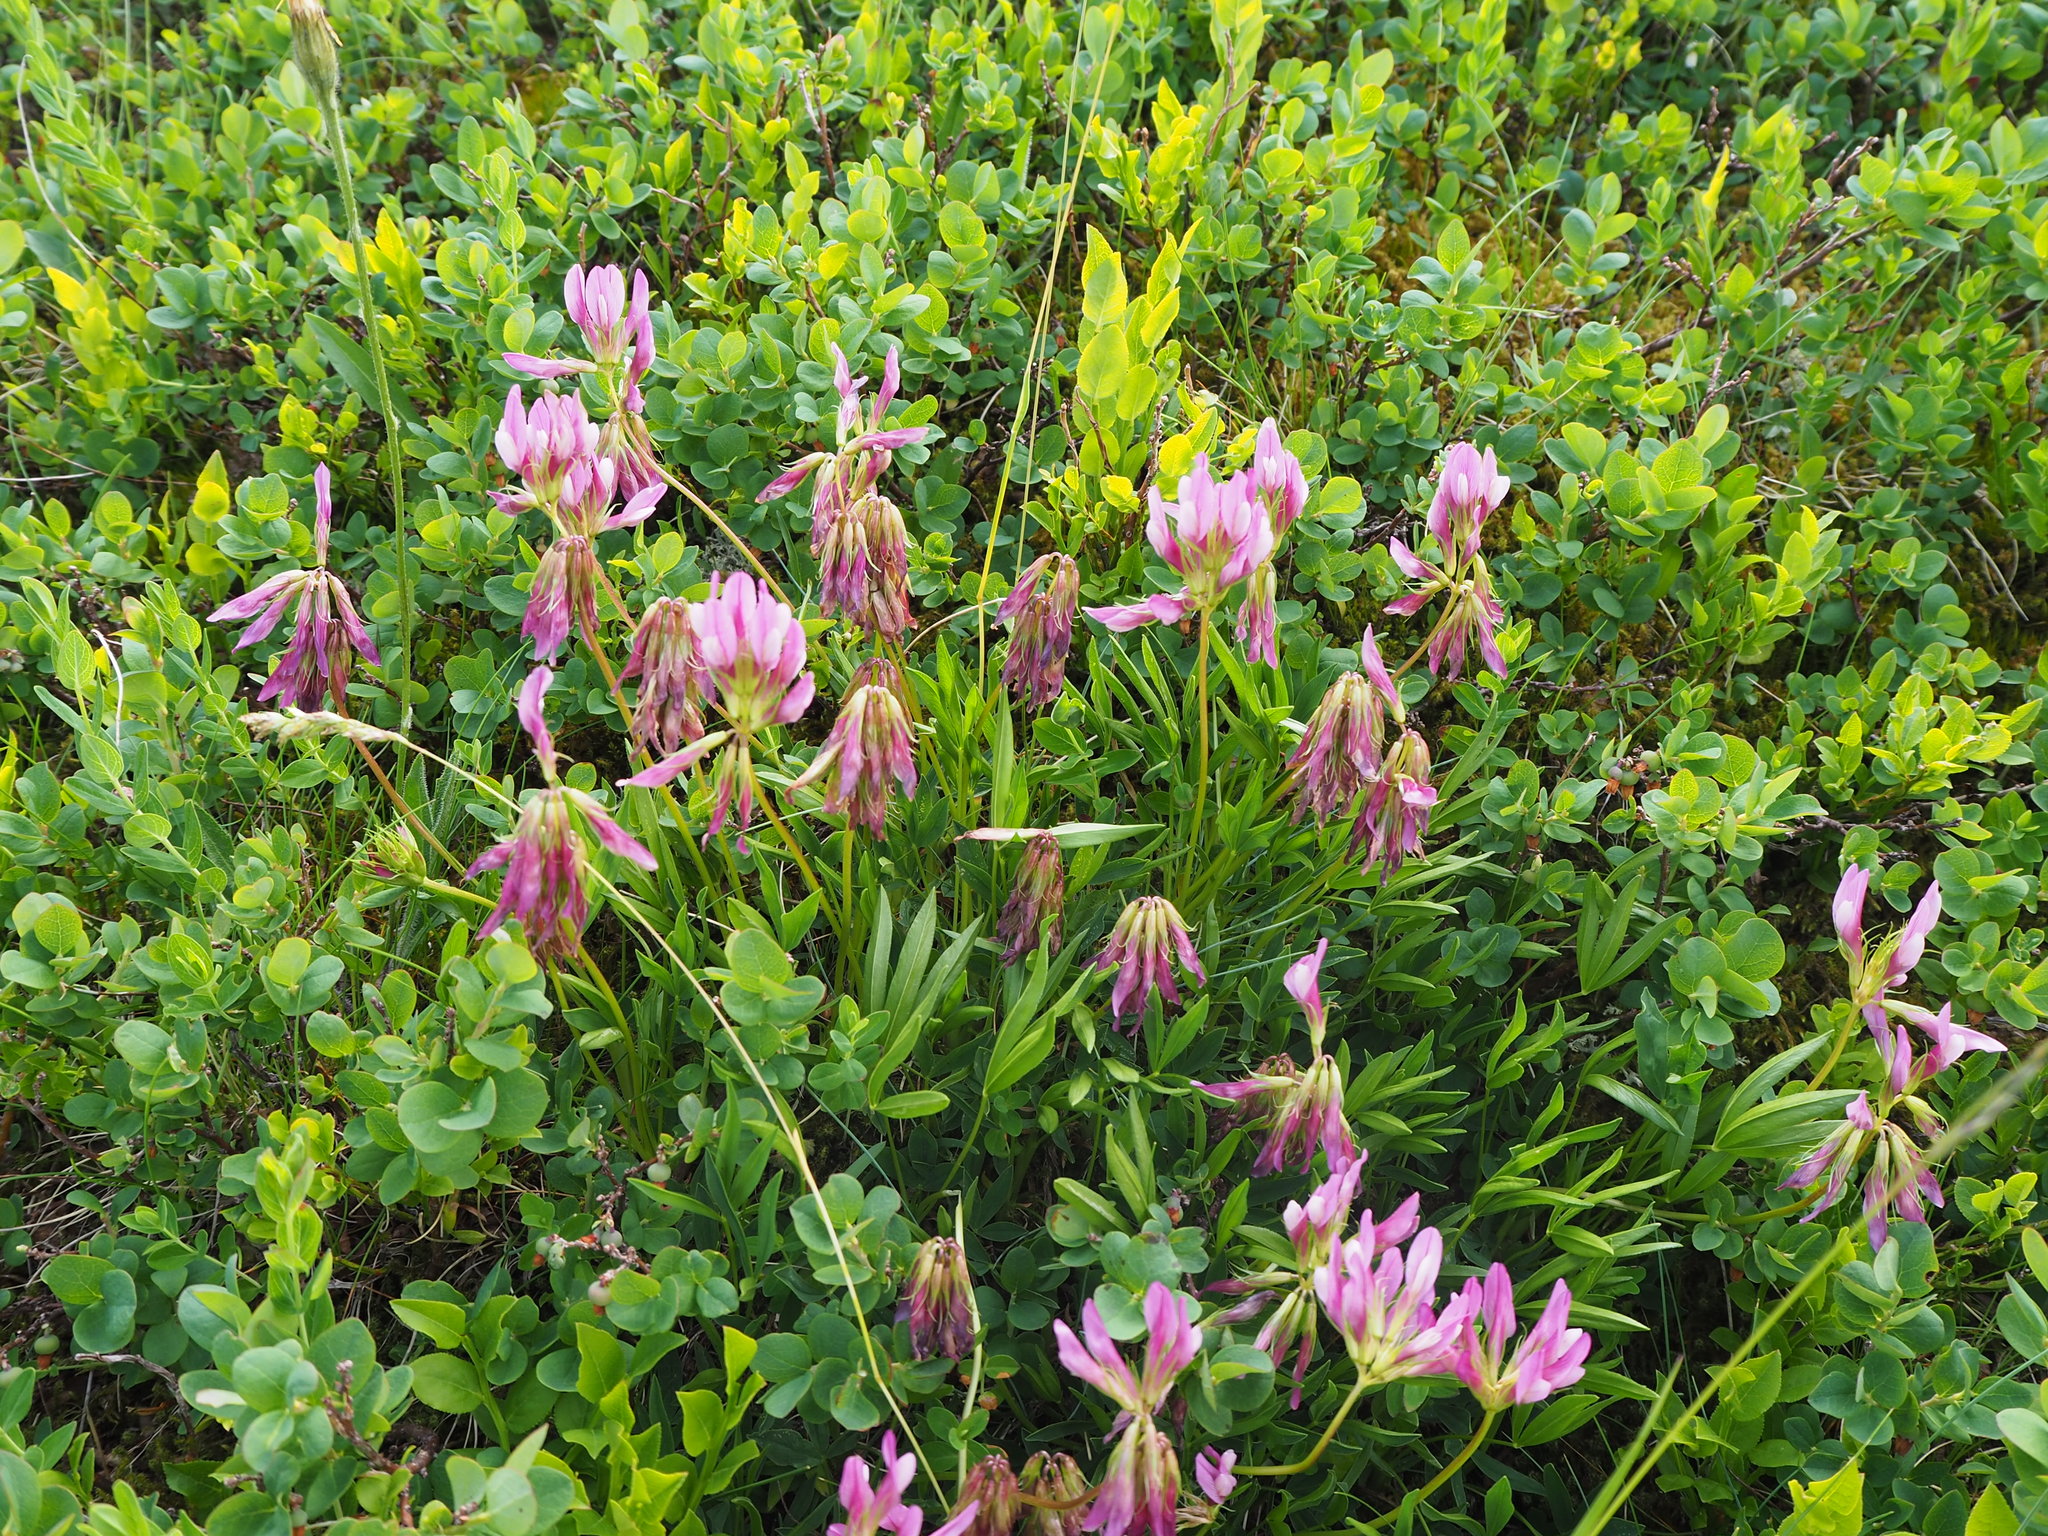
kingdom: Plantae
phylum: Tracheophyta
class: Magnoliopsida
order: Fabales
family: Fabaceae
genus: Trifolium
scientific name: Trifolium alpinum
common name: Alpine clover
